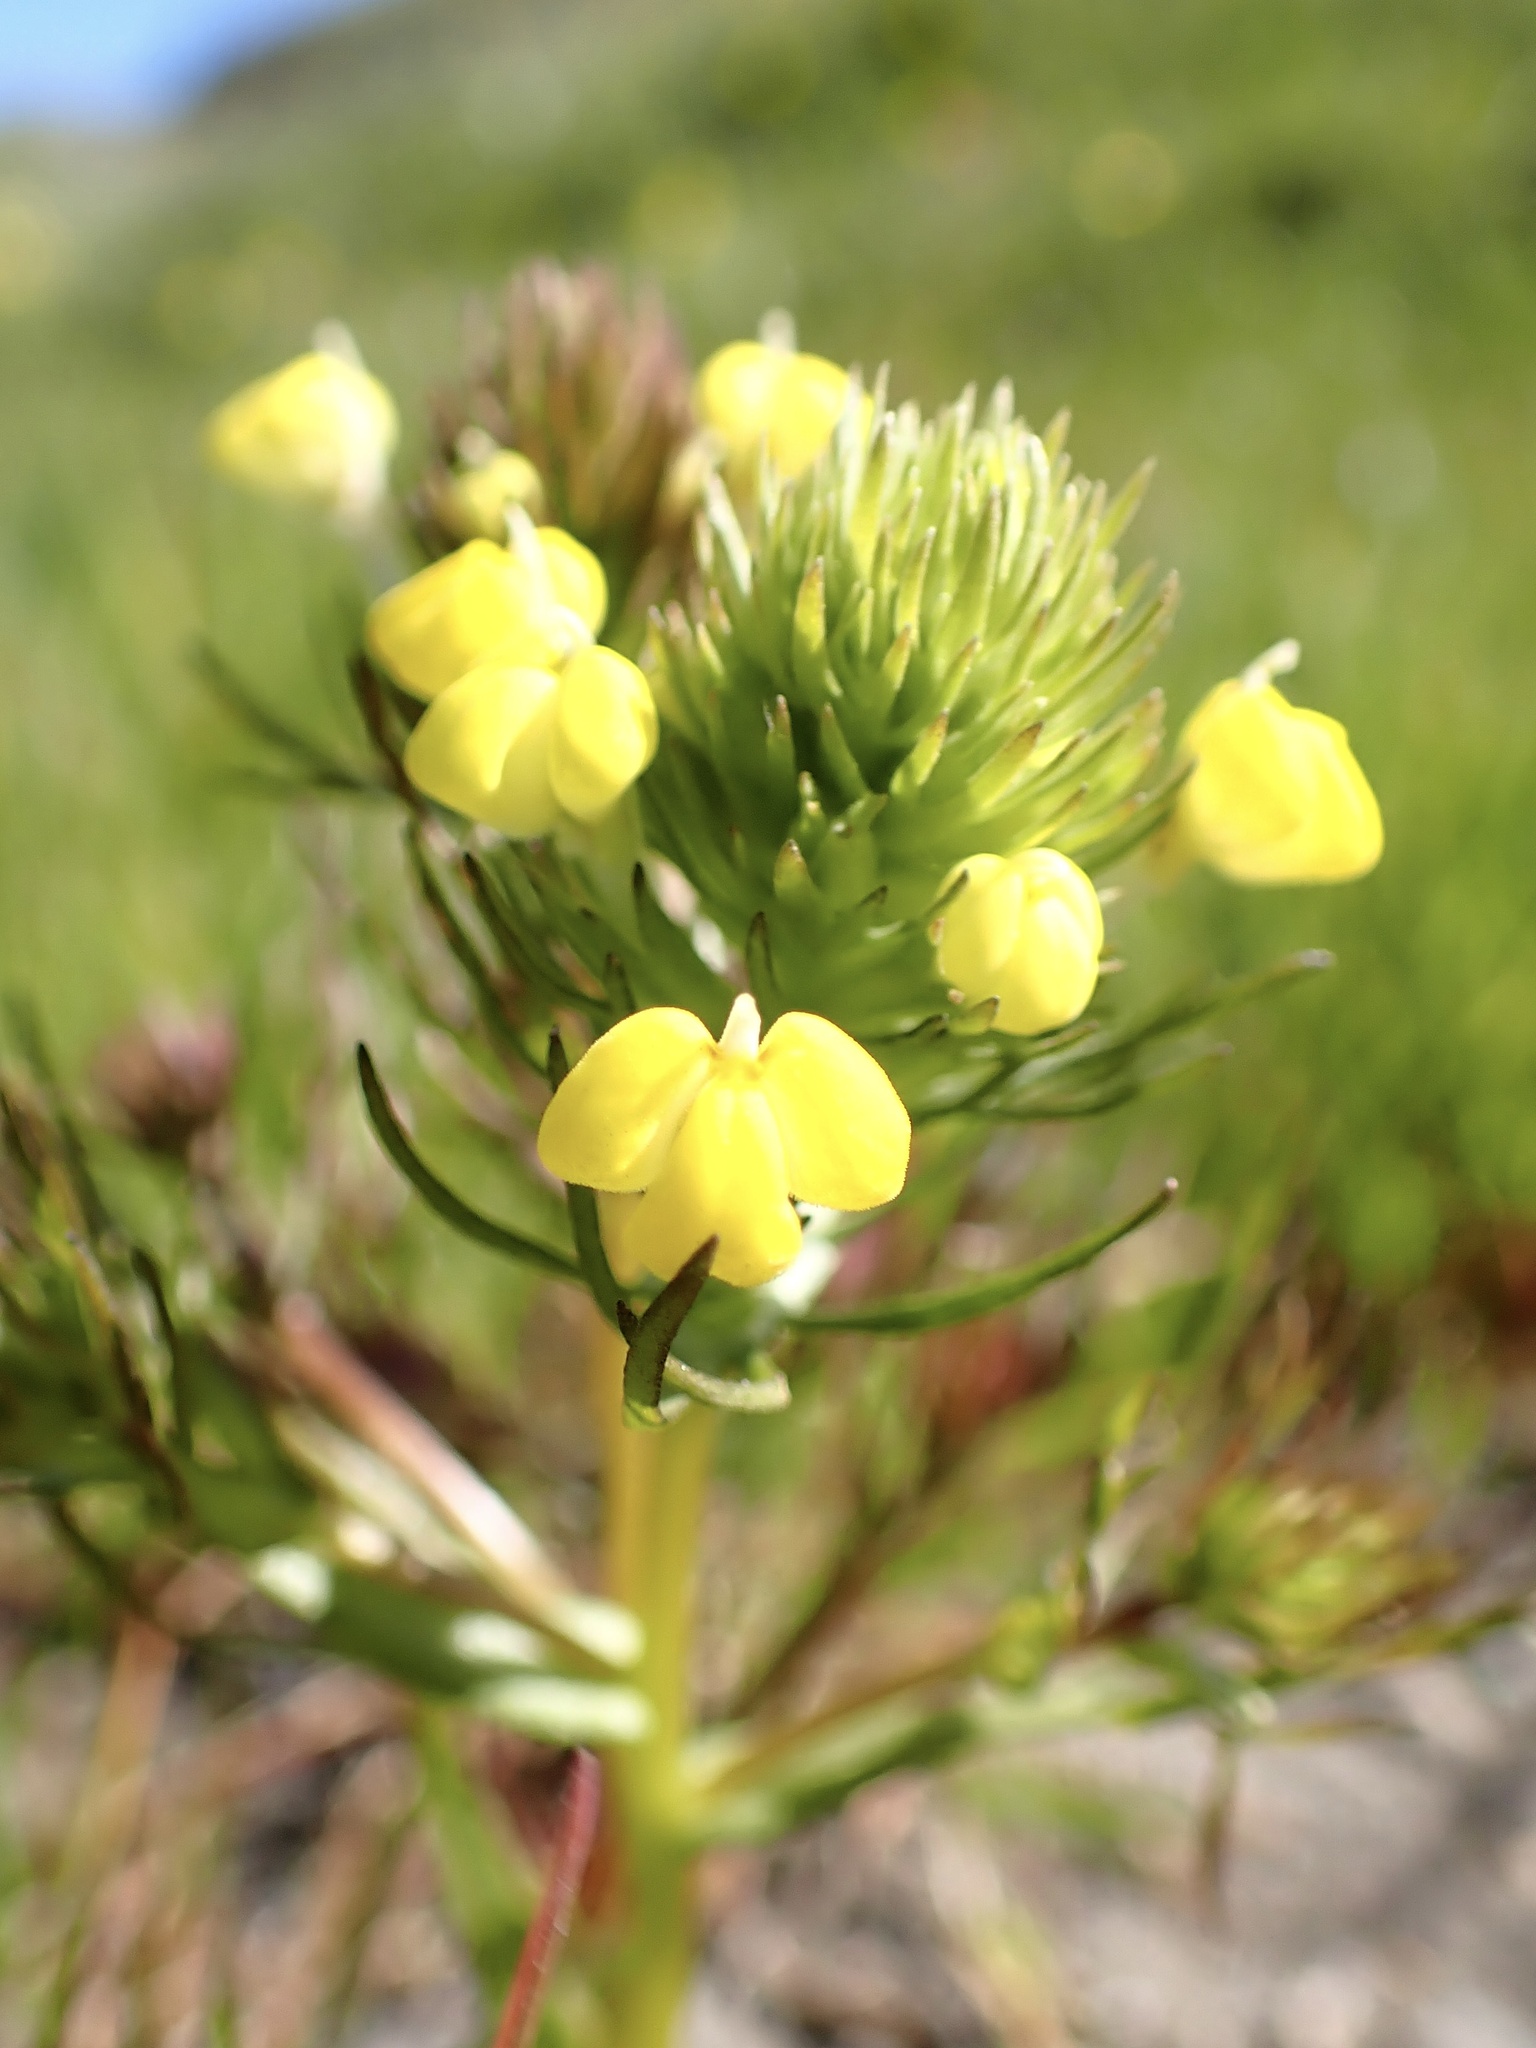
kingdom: Plantae
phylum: Tracheophyta
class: Magnoliopsida
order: Lamiales
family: Orobanchaceae
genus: Triphysaria
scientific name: Triphysaria versicolor
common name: Bearded false owl-clover
